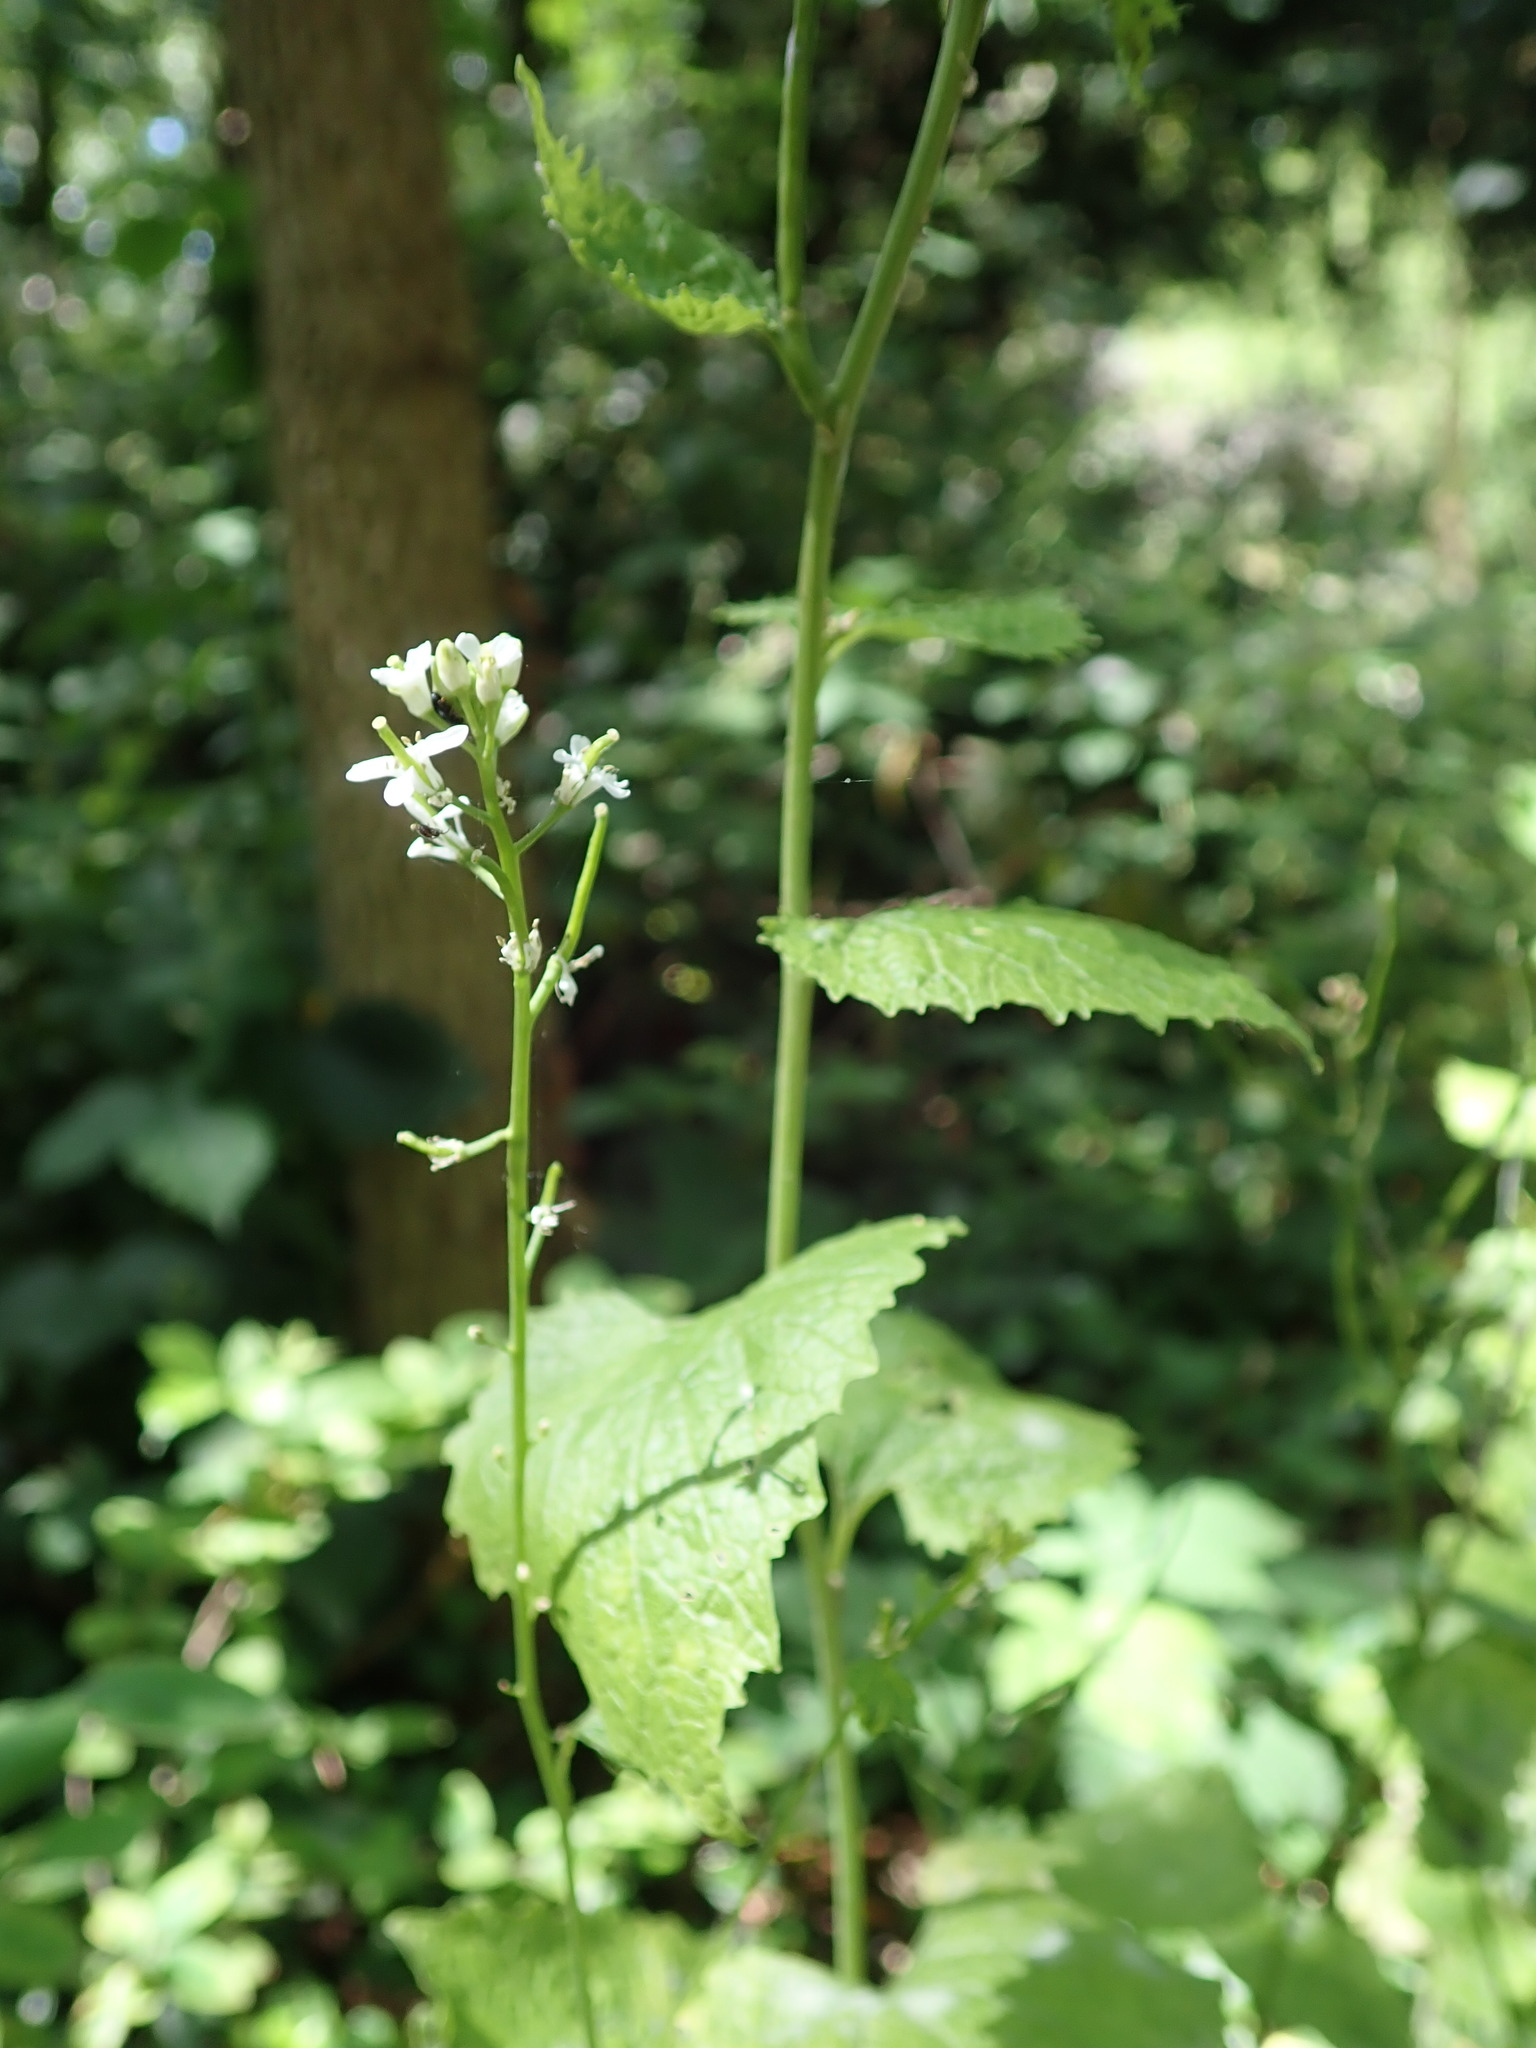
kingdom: Plantae
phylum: Tracheophyta
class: Magnoliopsida
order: Brassicales
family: Brassicaceae
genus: Alliaria
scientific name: Alliaria petiolata
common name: Garlic mustard
